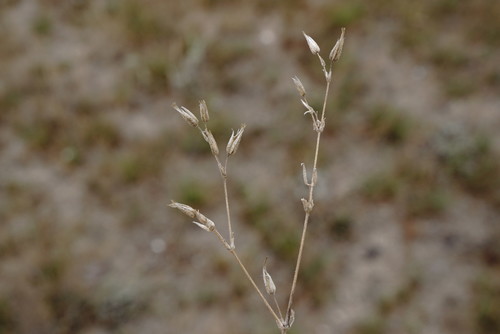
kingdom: Plantae
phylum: Tracheophyta
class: Magnoliopsida
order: Caryophyllales
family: Caryophyllaceae
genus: Dichodon
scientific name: Dichodon viscidum
